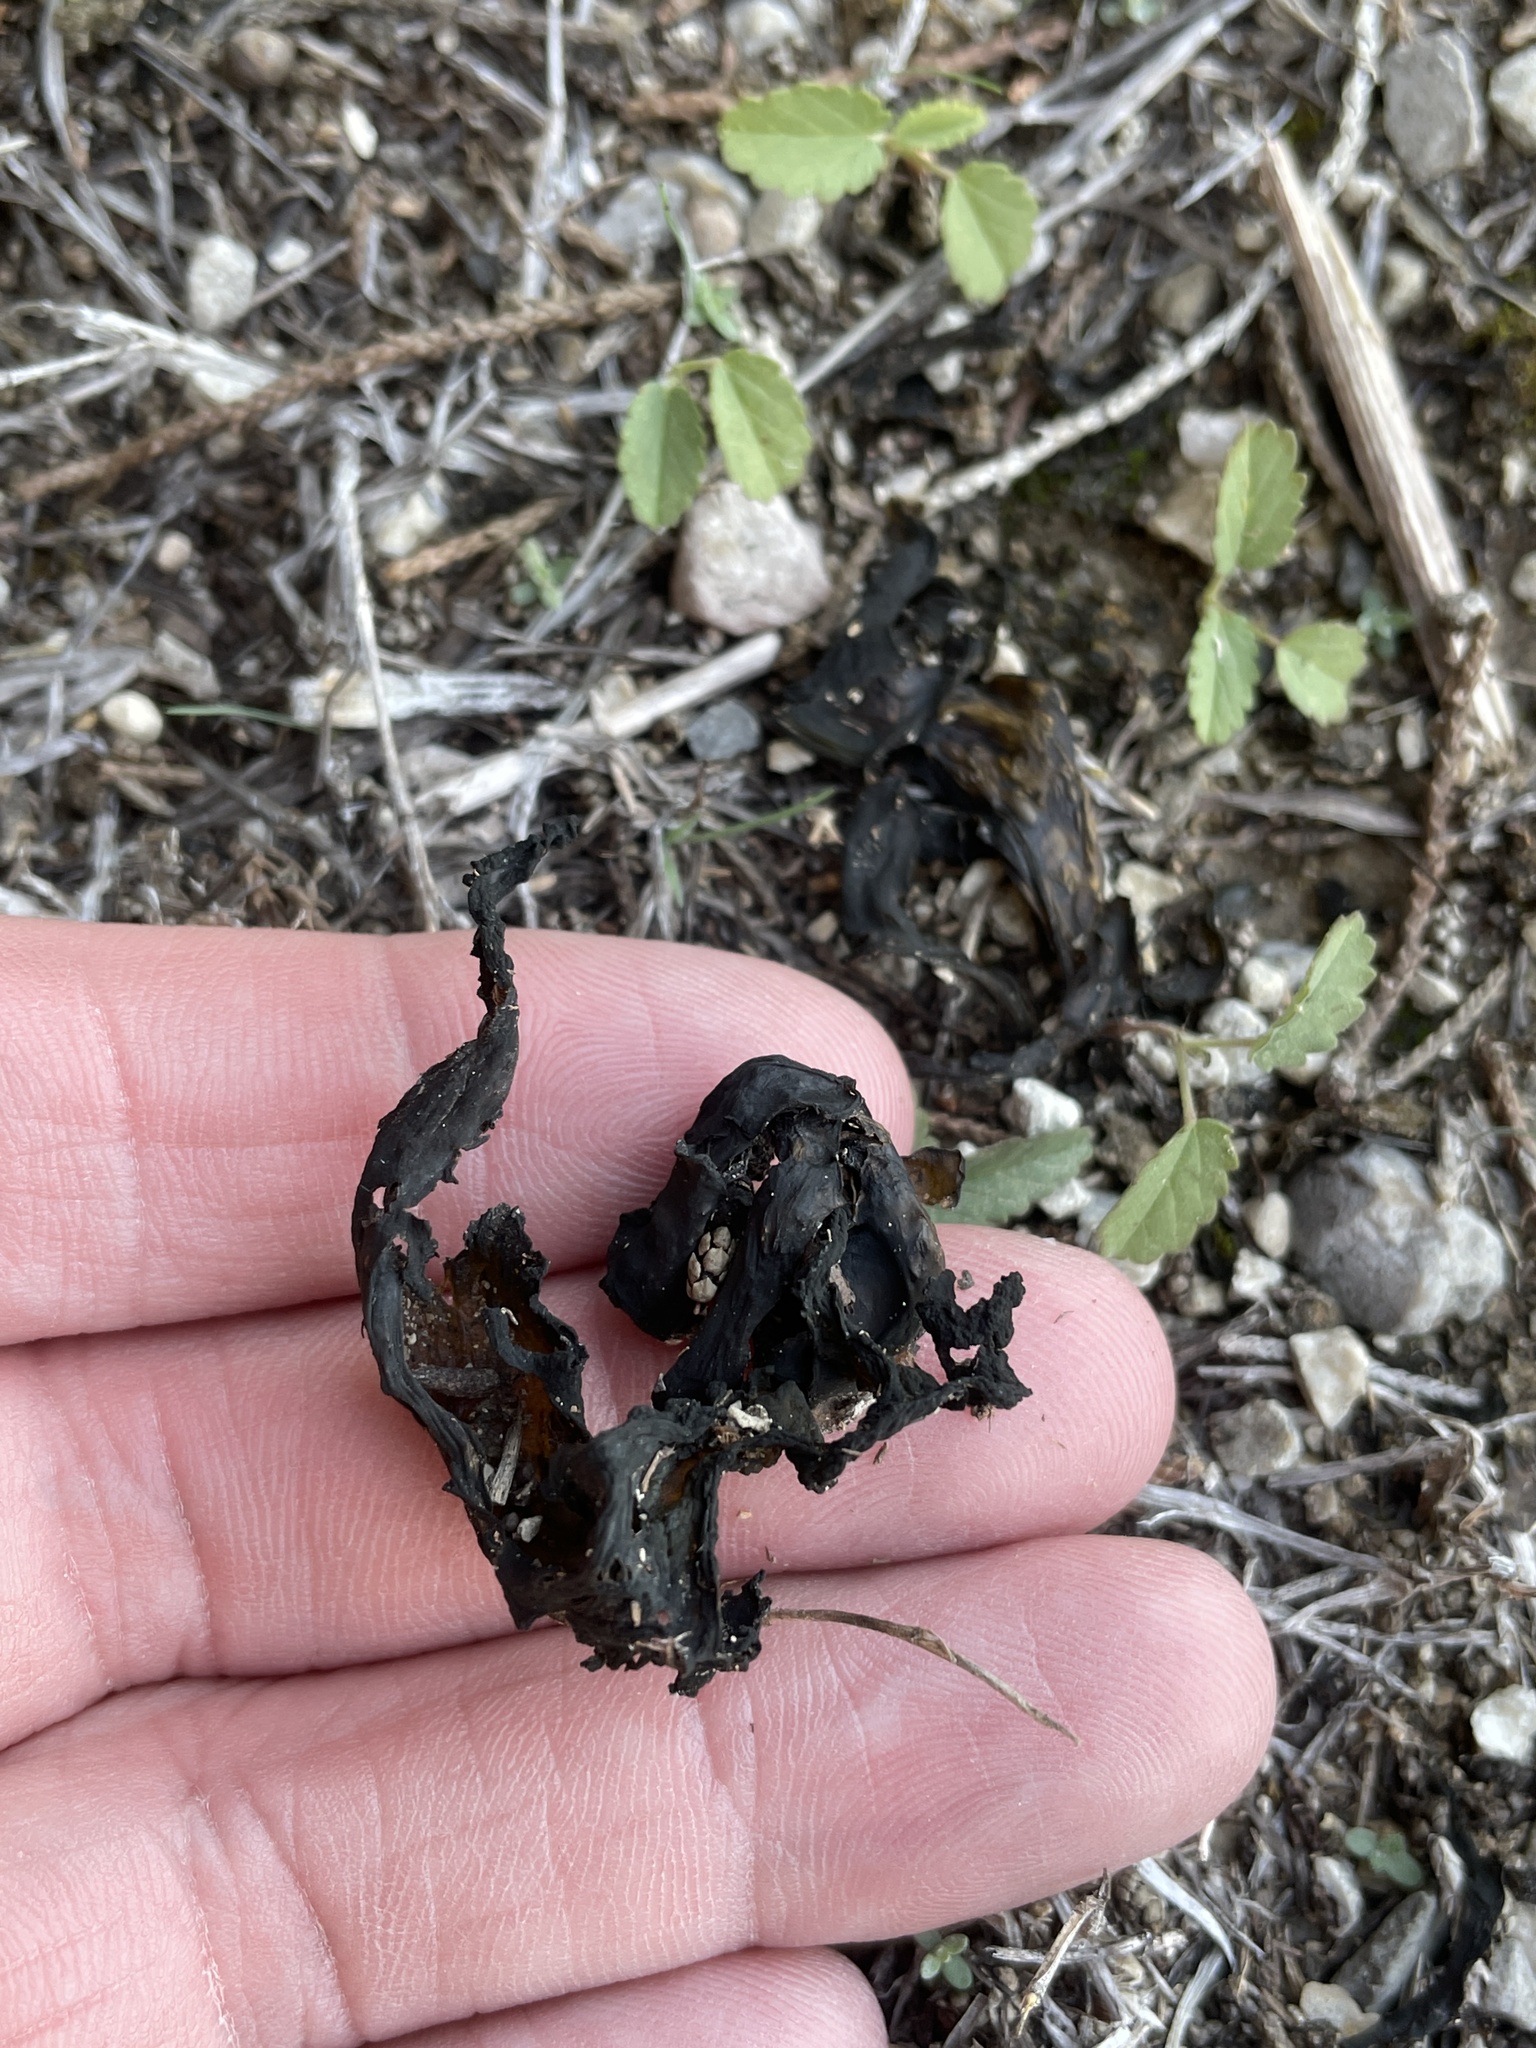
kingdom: Bacteria
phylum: Cyanobacteria
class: Cyanobacteriia
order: Cyanobacteriales
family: Nostocaceae
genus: Nostoc
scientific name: Nostoc commune
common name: Star jelly
